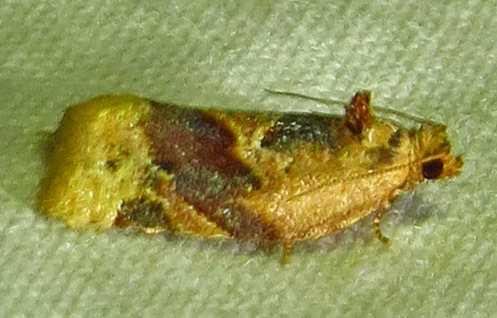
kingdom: Animalia
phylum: Arthropoda
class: Insecta
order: Lepidoptera
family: Tortricidae
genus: Argyrotaenia
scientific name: Argyrotaenia velutinana
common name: Red-banded leafroller moth
